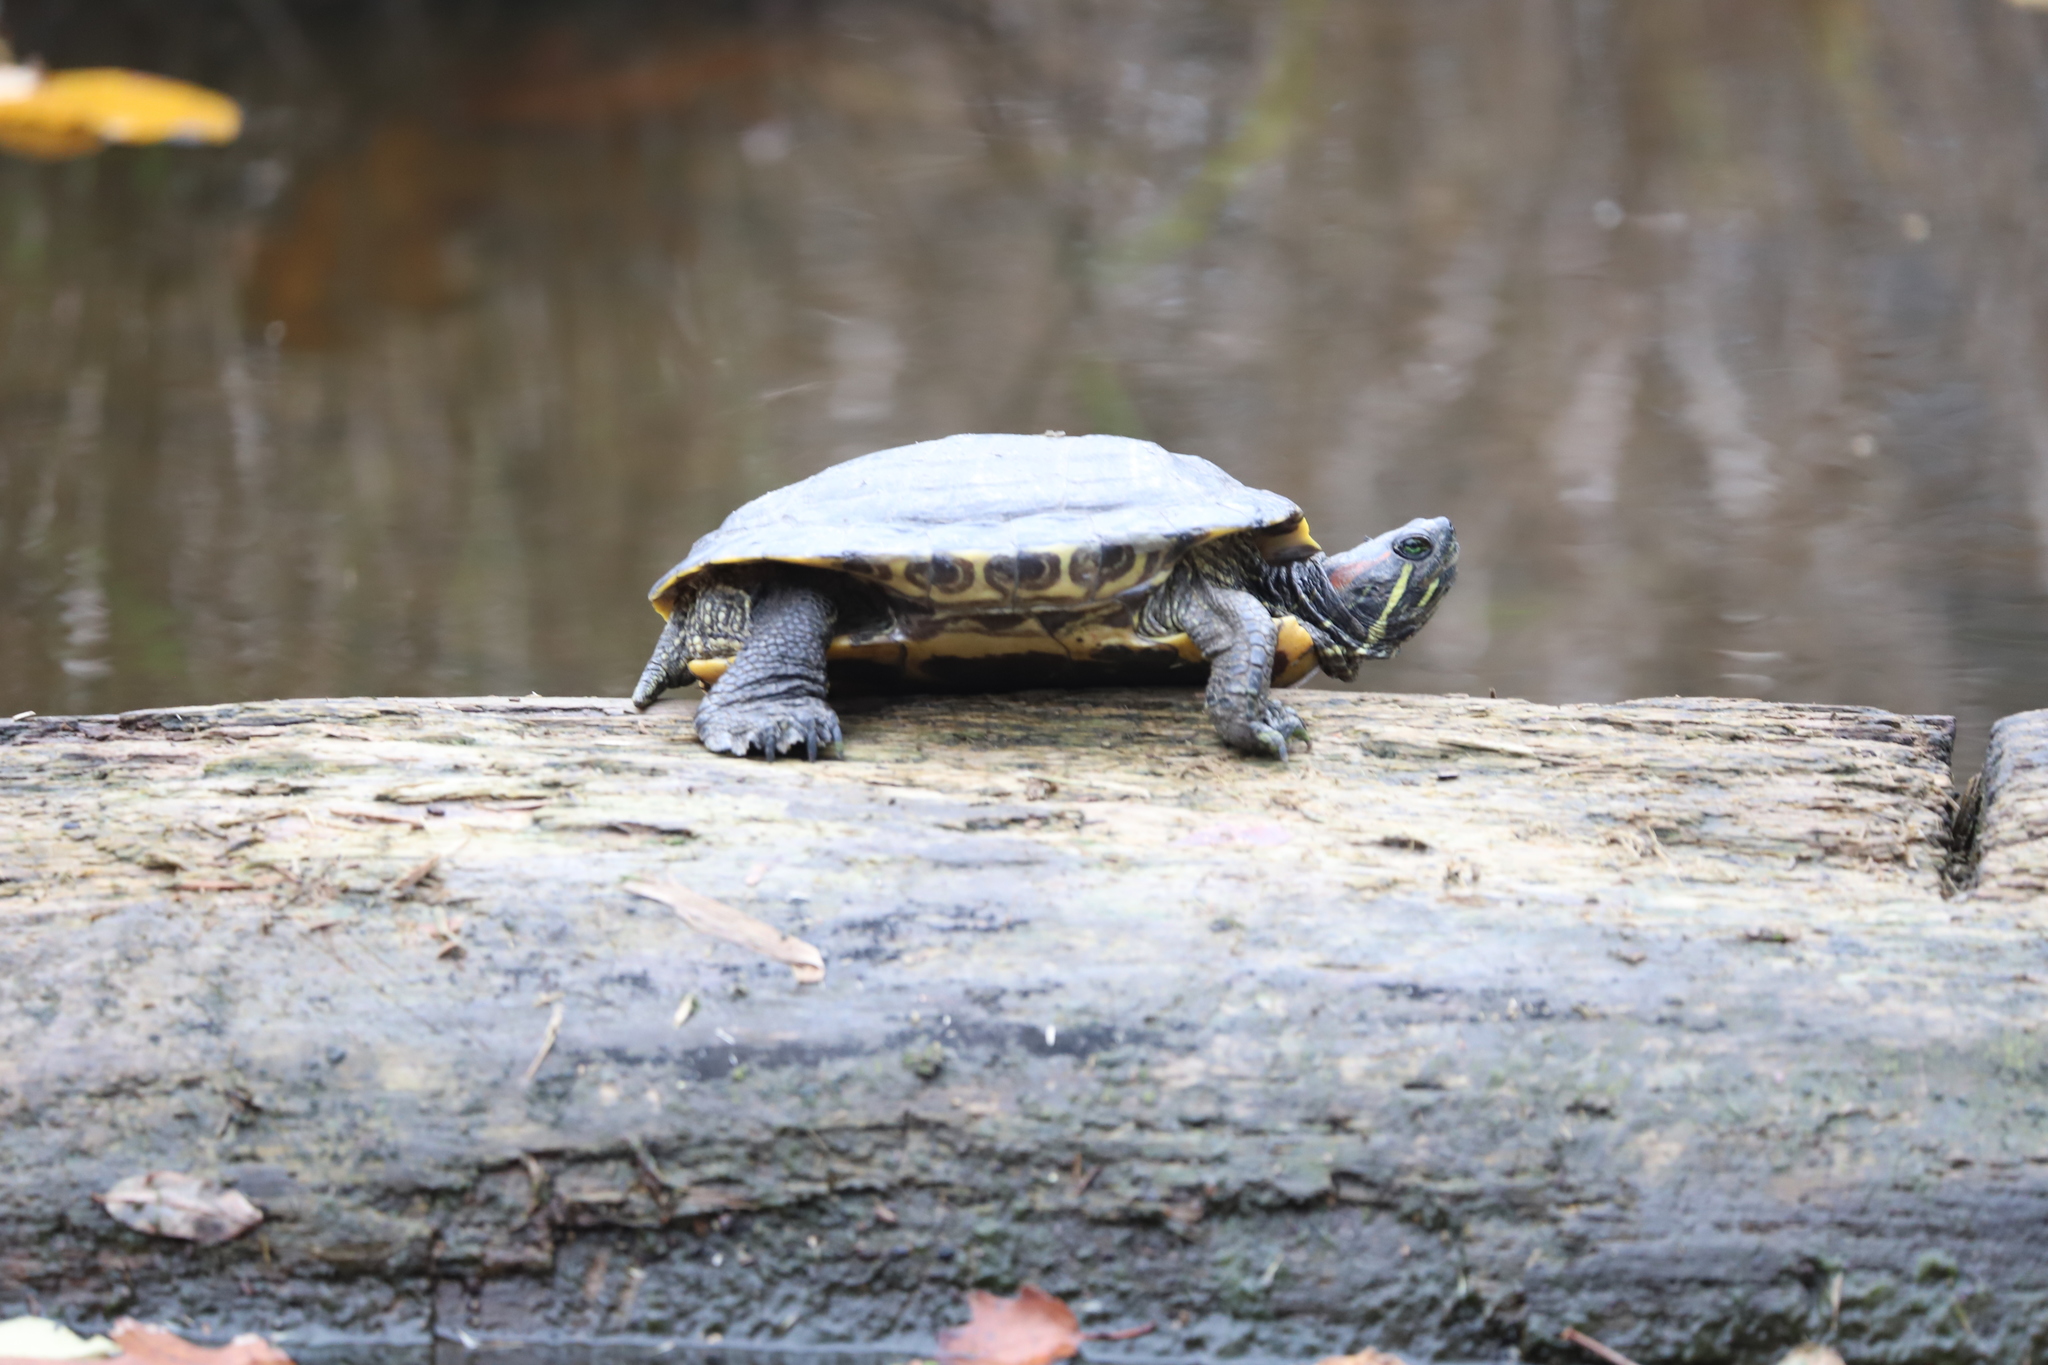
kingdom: Animalia
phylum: Chordata
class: Testudines
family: Emydidae
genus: Trachemys
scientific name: Trachemys scripta
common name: Slider
